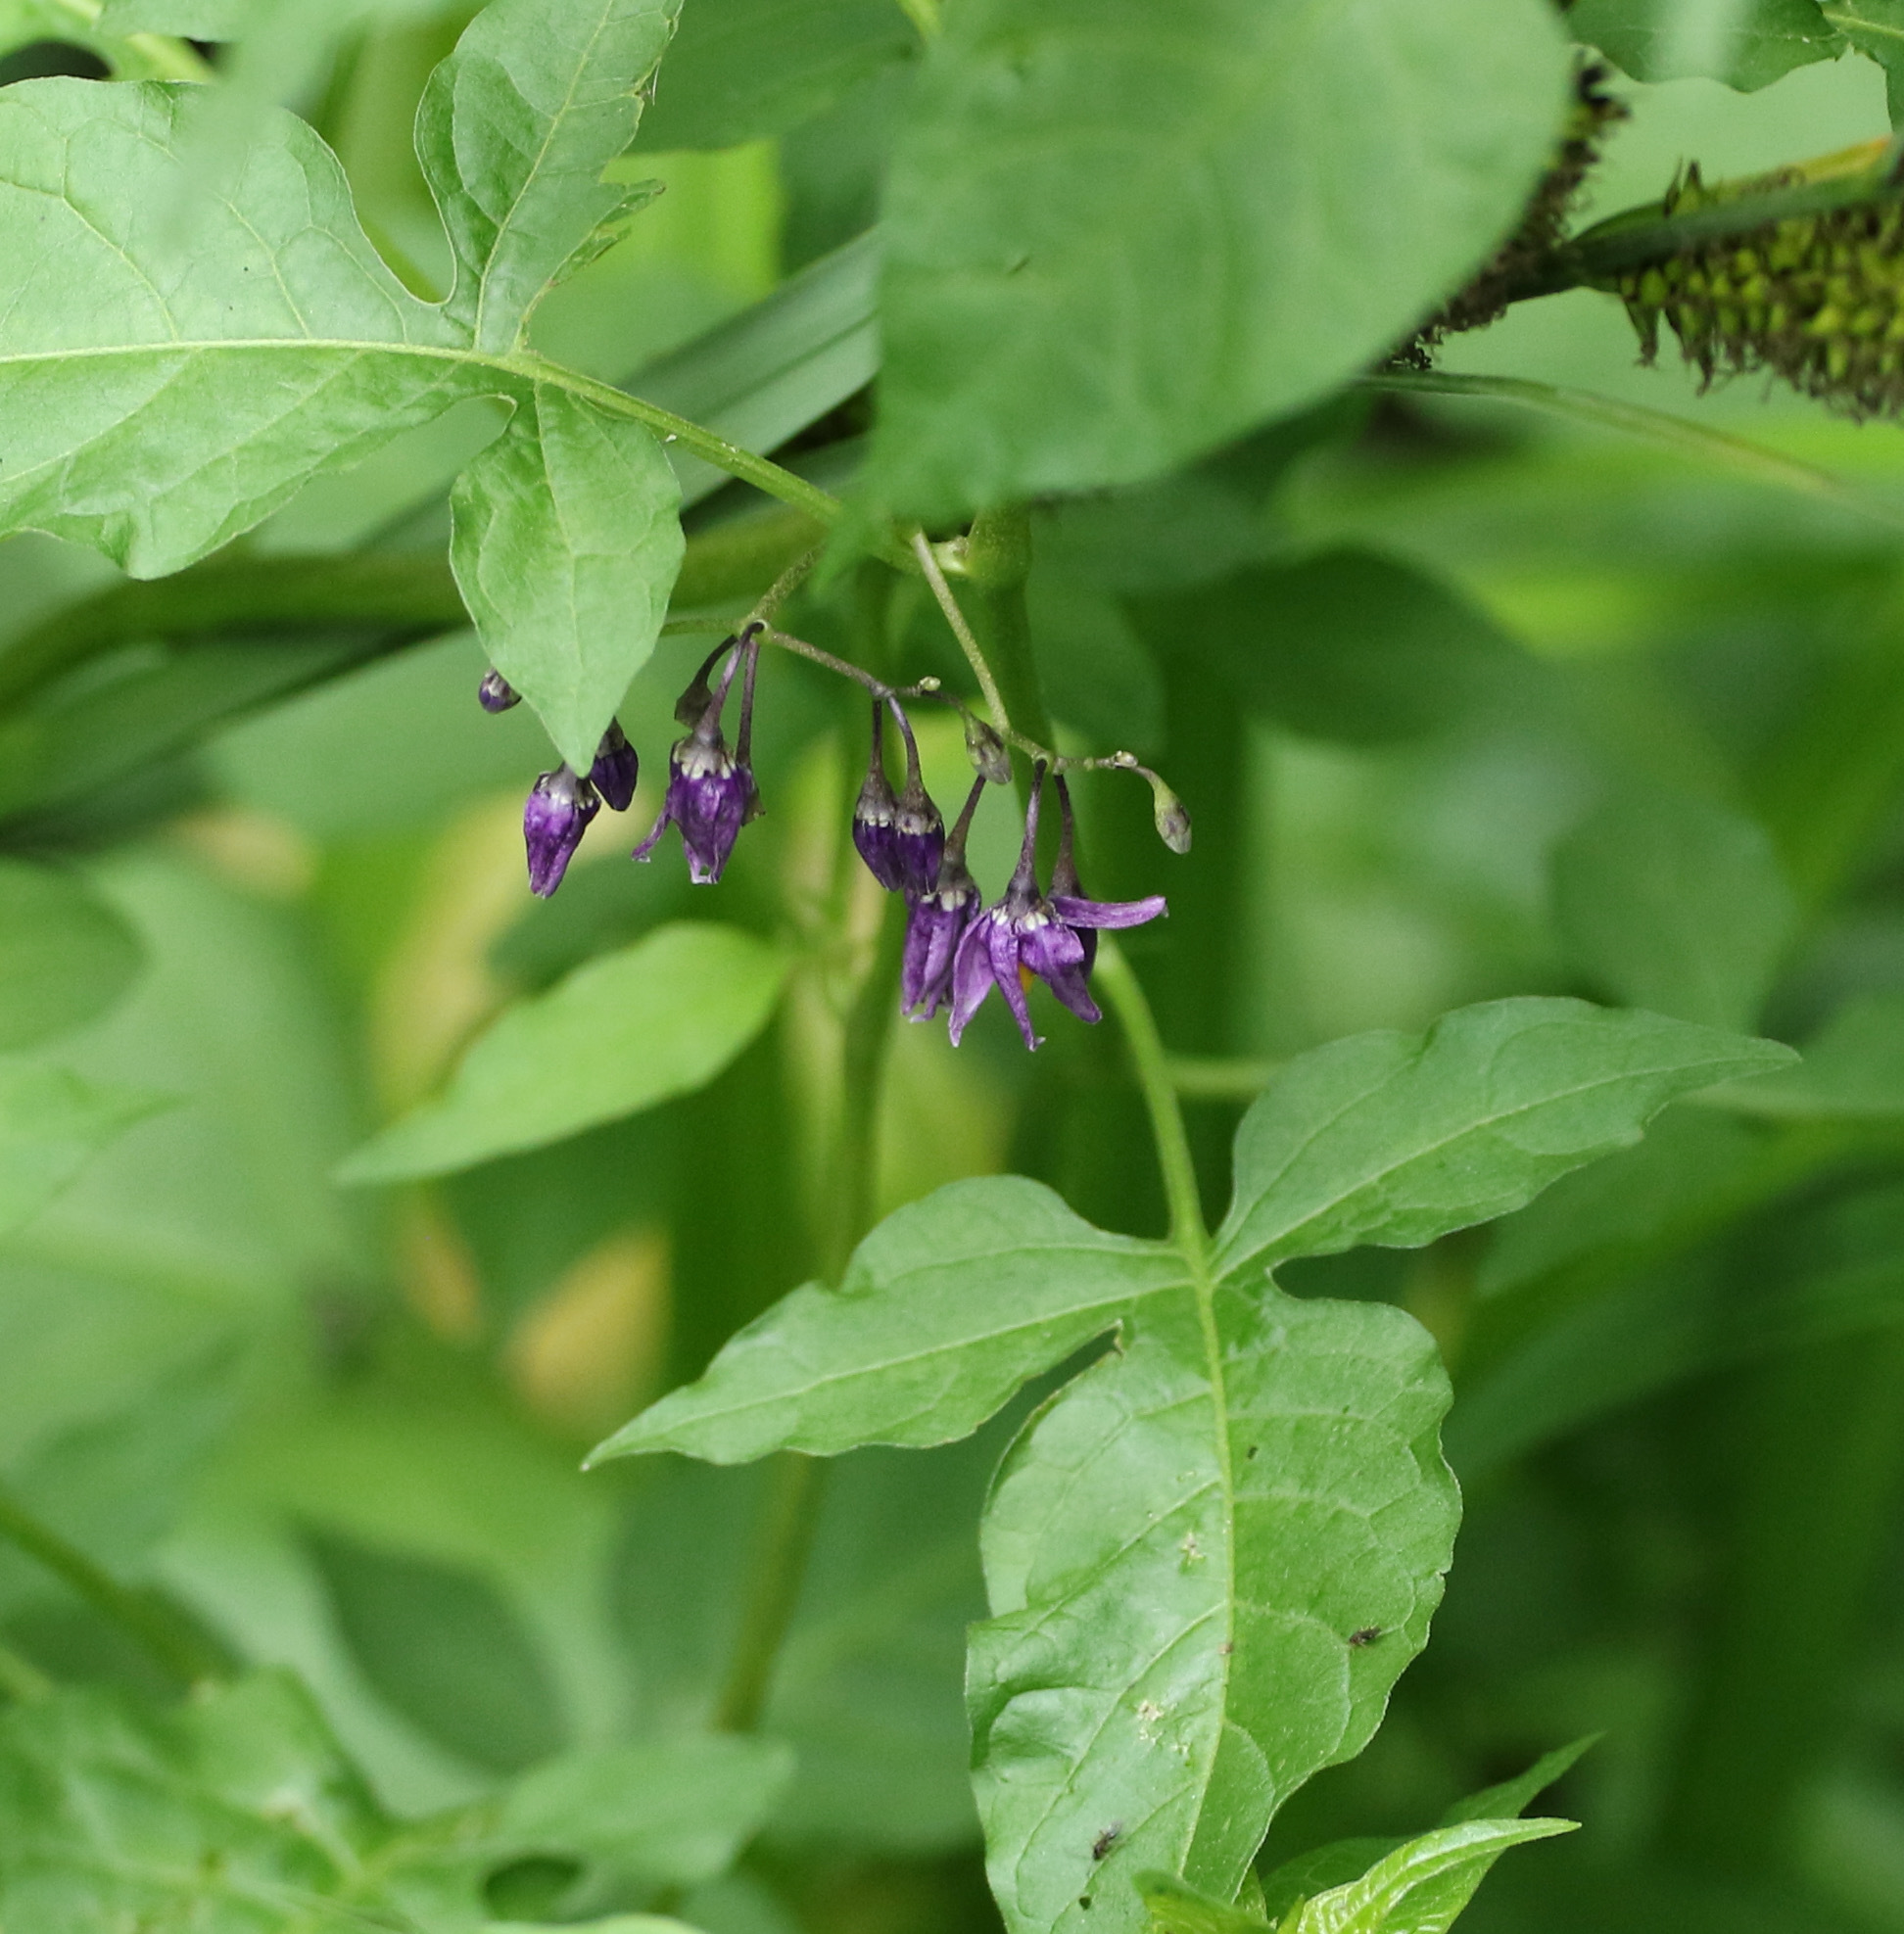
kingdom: Plantae
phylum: Tracheophyta
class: Magnoliopsida
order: Solanales
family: Solanaceae
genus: Solanum
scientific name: Solanum dulcamara
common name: Climbing nightshade
